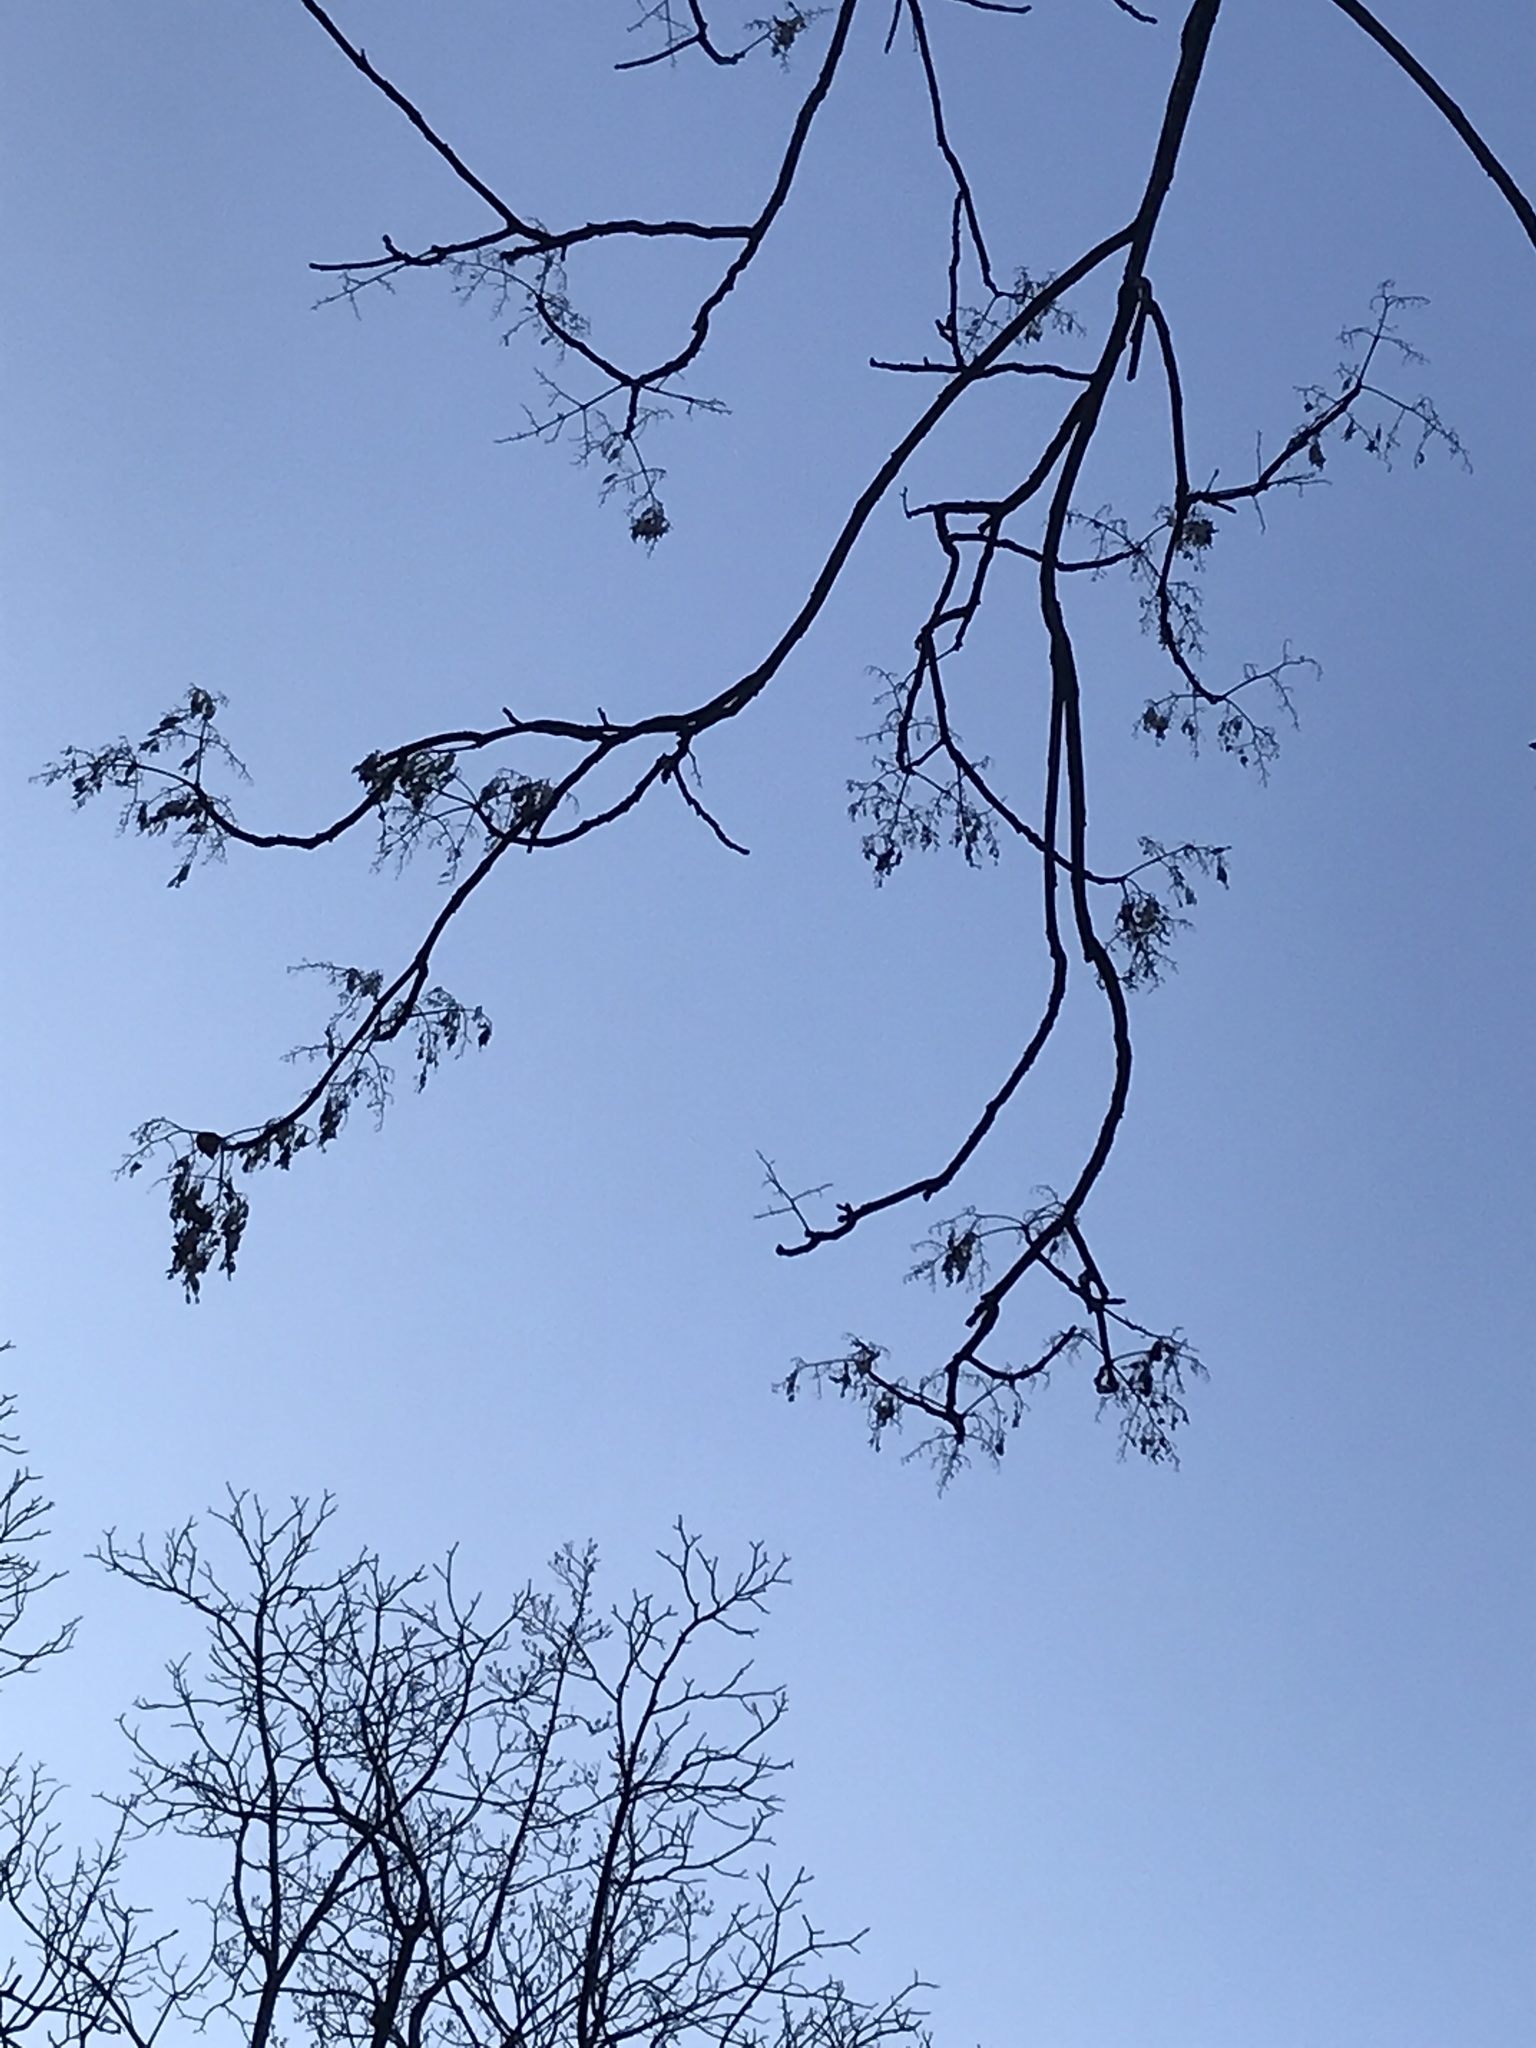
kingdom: Plantae
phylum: Tracheophyta
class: Magnoliopsida
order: Sapindales
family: Simaroubaceae
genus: Ailanthus
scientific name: Ailanthus altissima
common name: Tree-of-heaven
